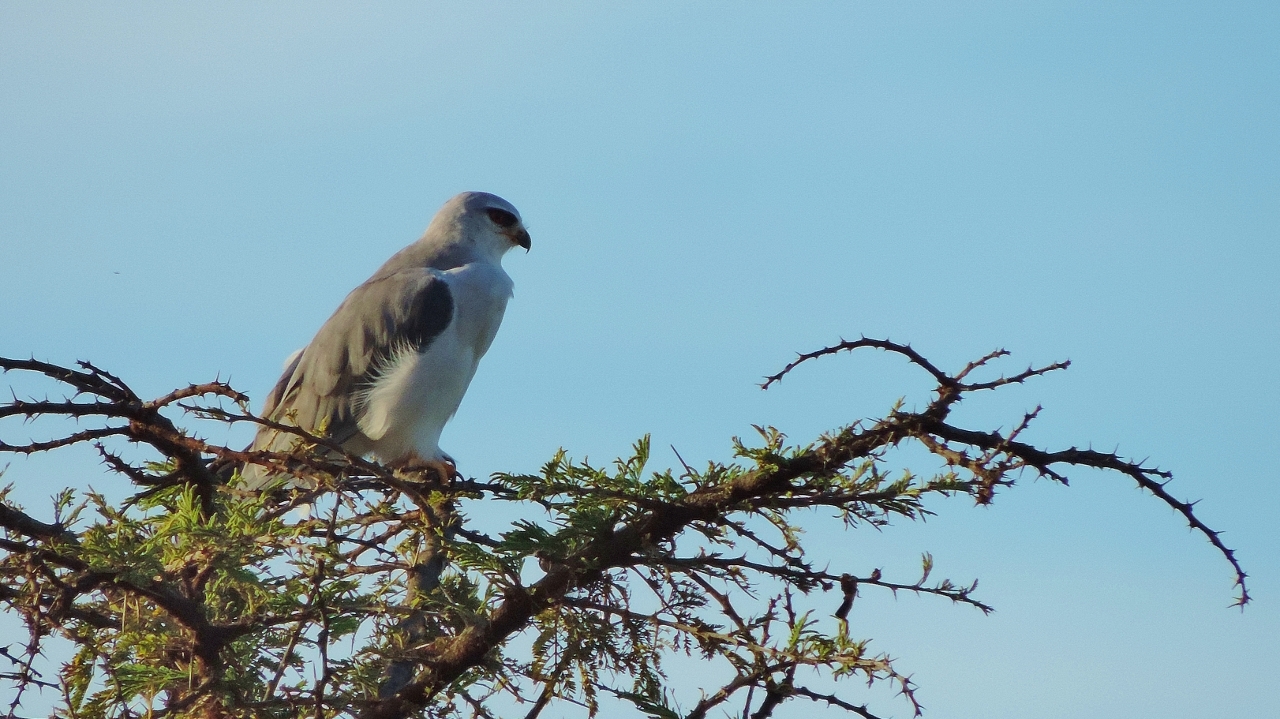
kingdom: Animalia
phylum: Chordata
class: Aves
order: Accipitriformes
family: Accipitridae
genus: Elanus
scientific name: Elanus caeruleus
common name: Black-winged kite
